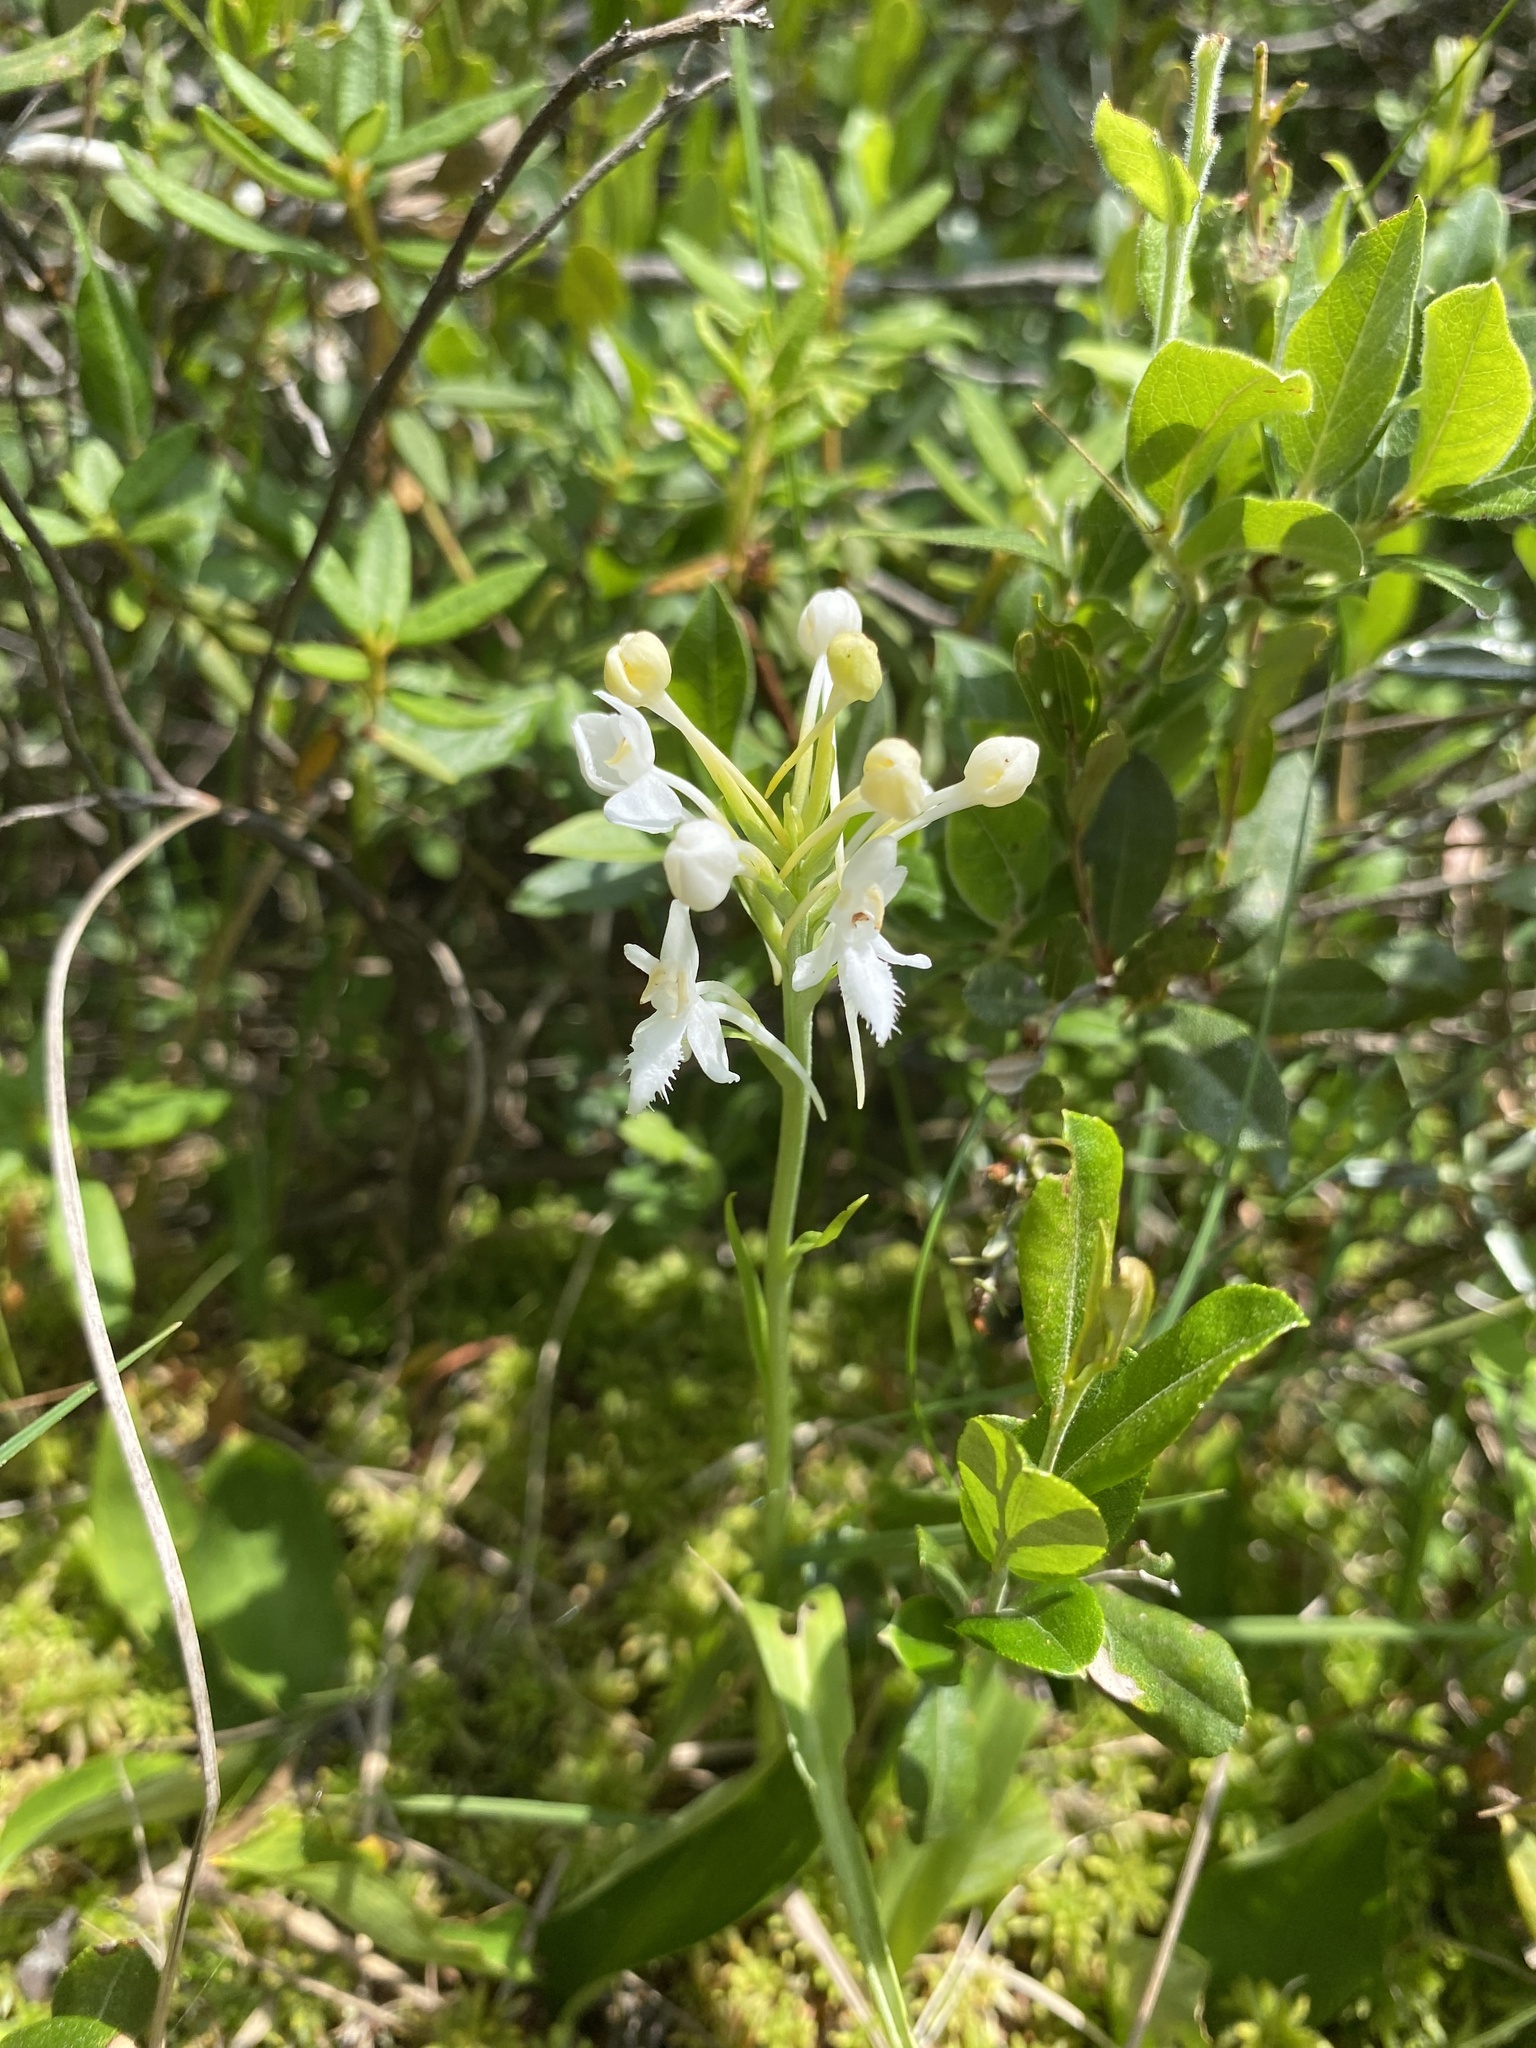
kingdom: Plantae
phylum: Tracheophyta
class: Liliopsida
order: Asparagales
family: Orchidaceae
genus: Platanthera
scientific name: Platanthera blephariglottis
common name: White fringed orchid
